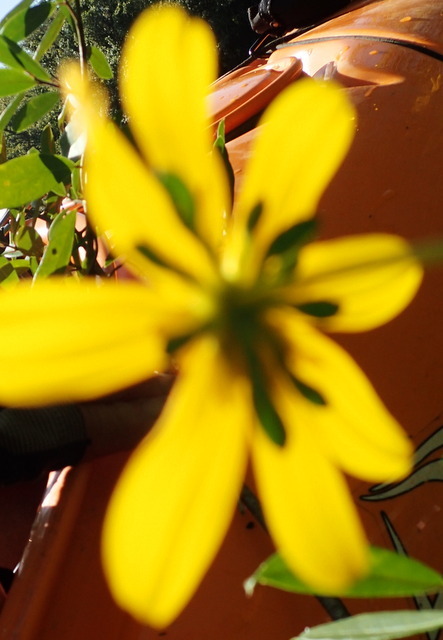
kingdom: Plantae
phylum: Tracheophyta
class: Magnoliopsida
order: Asterales
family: Asteraceae
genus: Bidens
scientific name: Bidens laevis
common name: Larger bur-marigold
